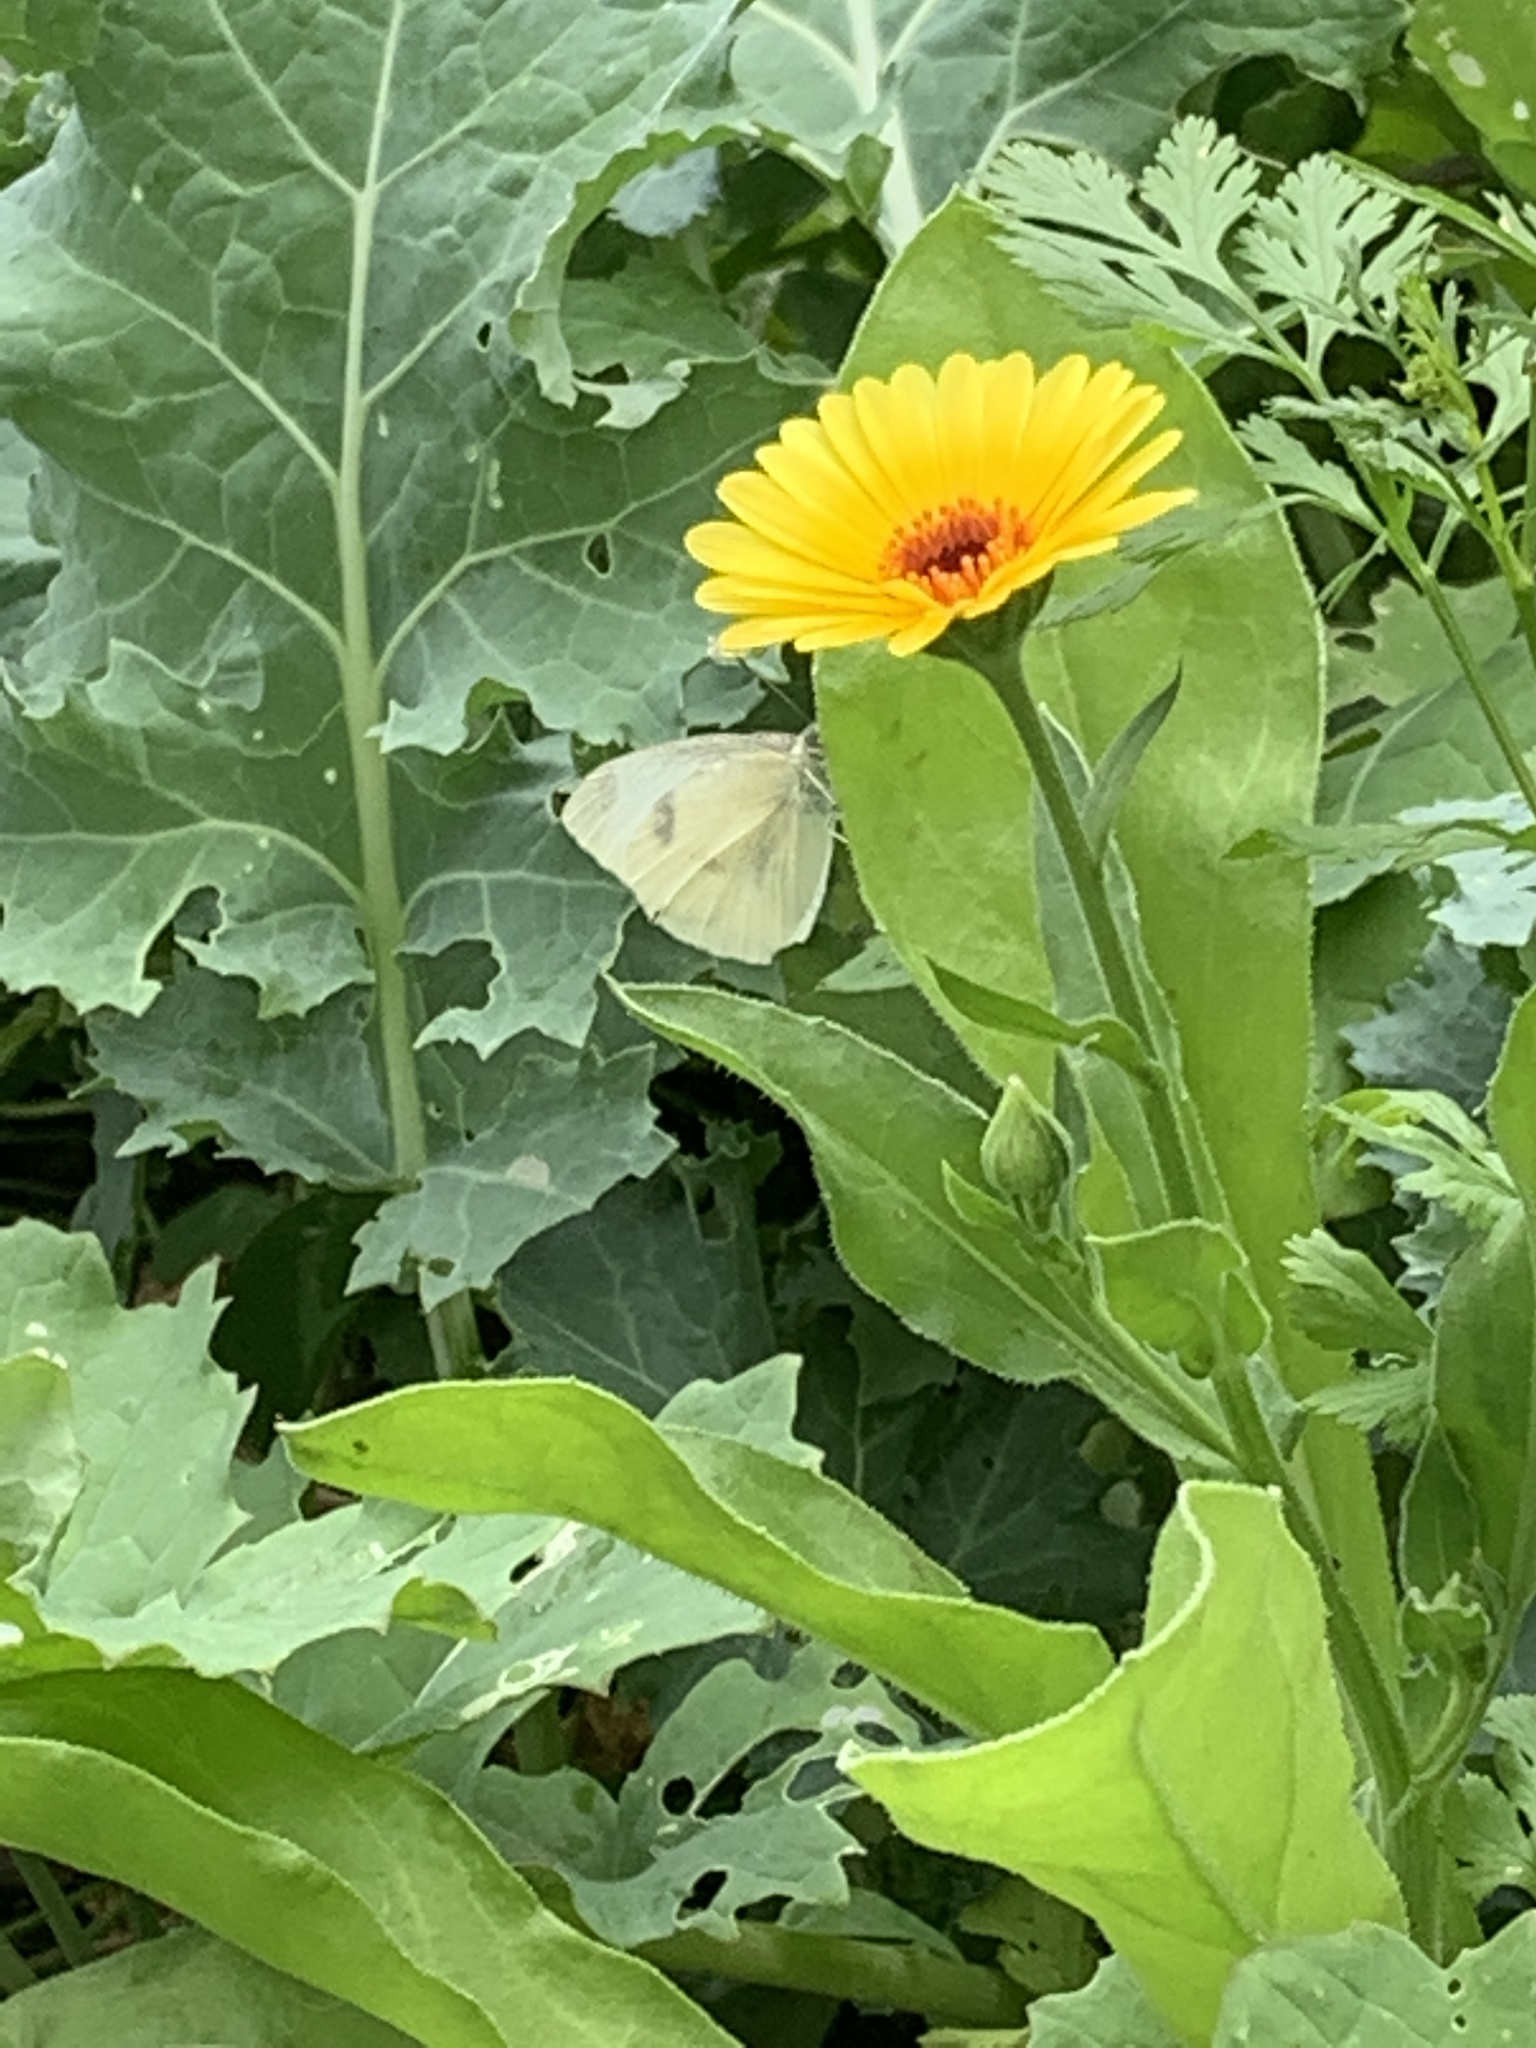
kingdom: Animalia
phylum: Arthropoda
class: Insecta
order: Lepidoptera
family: Pieridae
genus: Pieris
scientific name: Pieris rapae
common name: Small white
